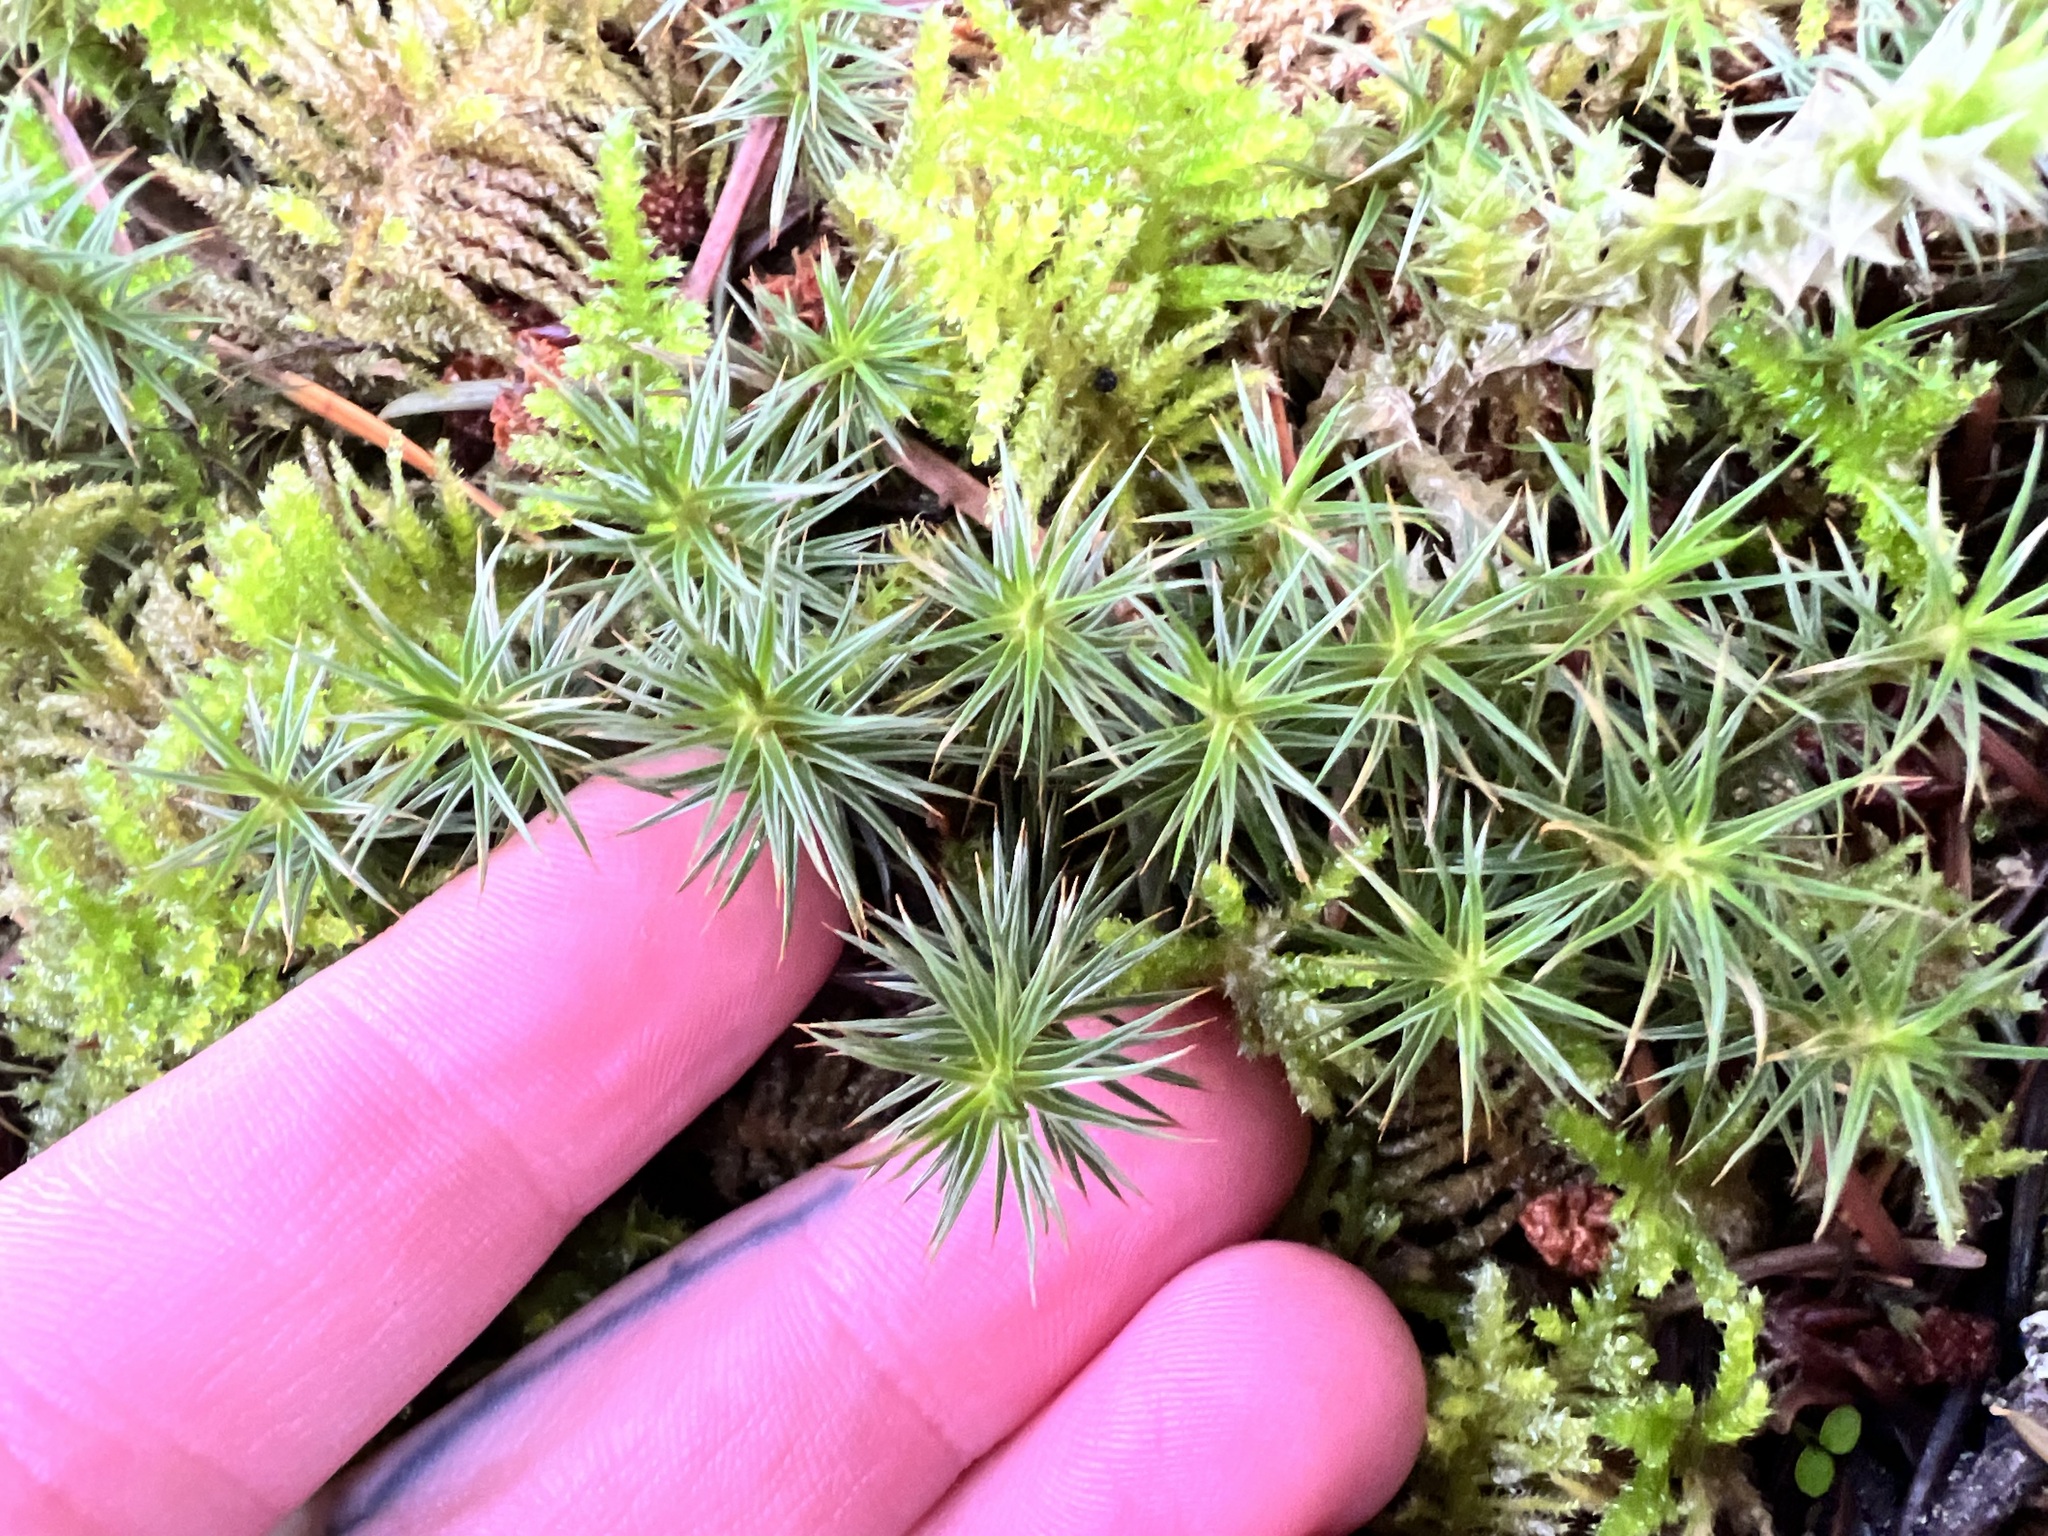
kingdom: Plantae
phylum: Bryophyta
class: Polytrichopsida
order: Polytrichales
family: Polytrichaceae
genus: Polytrichum
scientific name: Polytrichum juniperinum
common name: Juniper haircap moss
